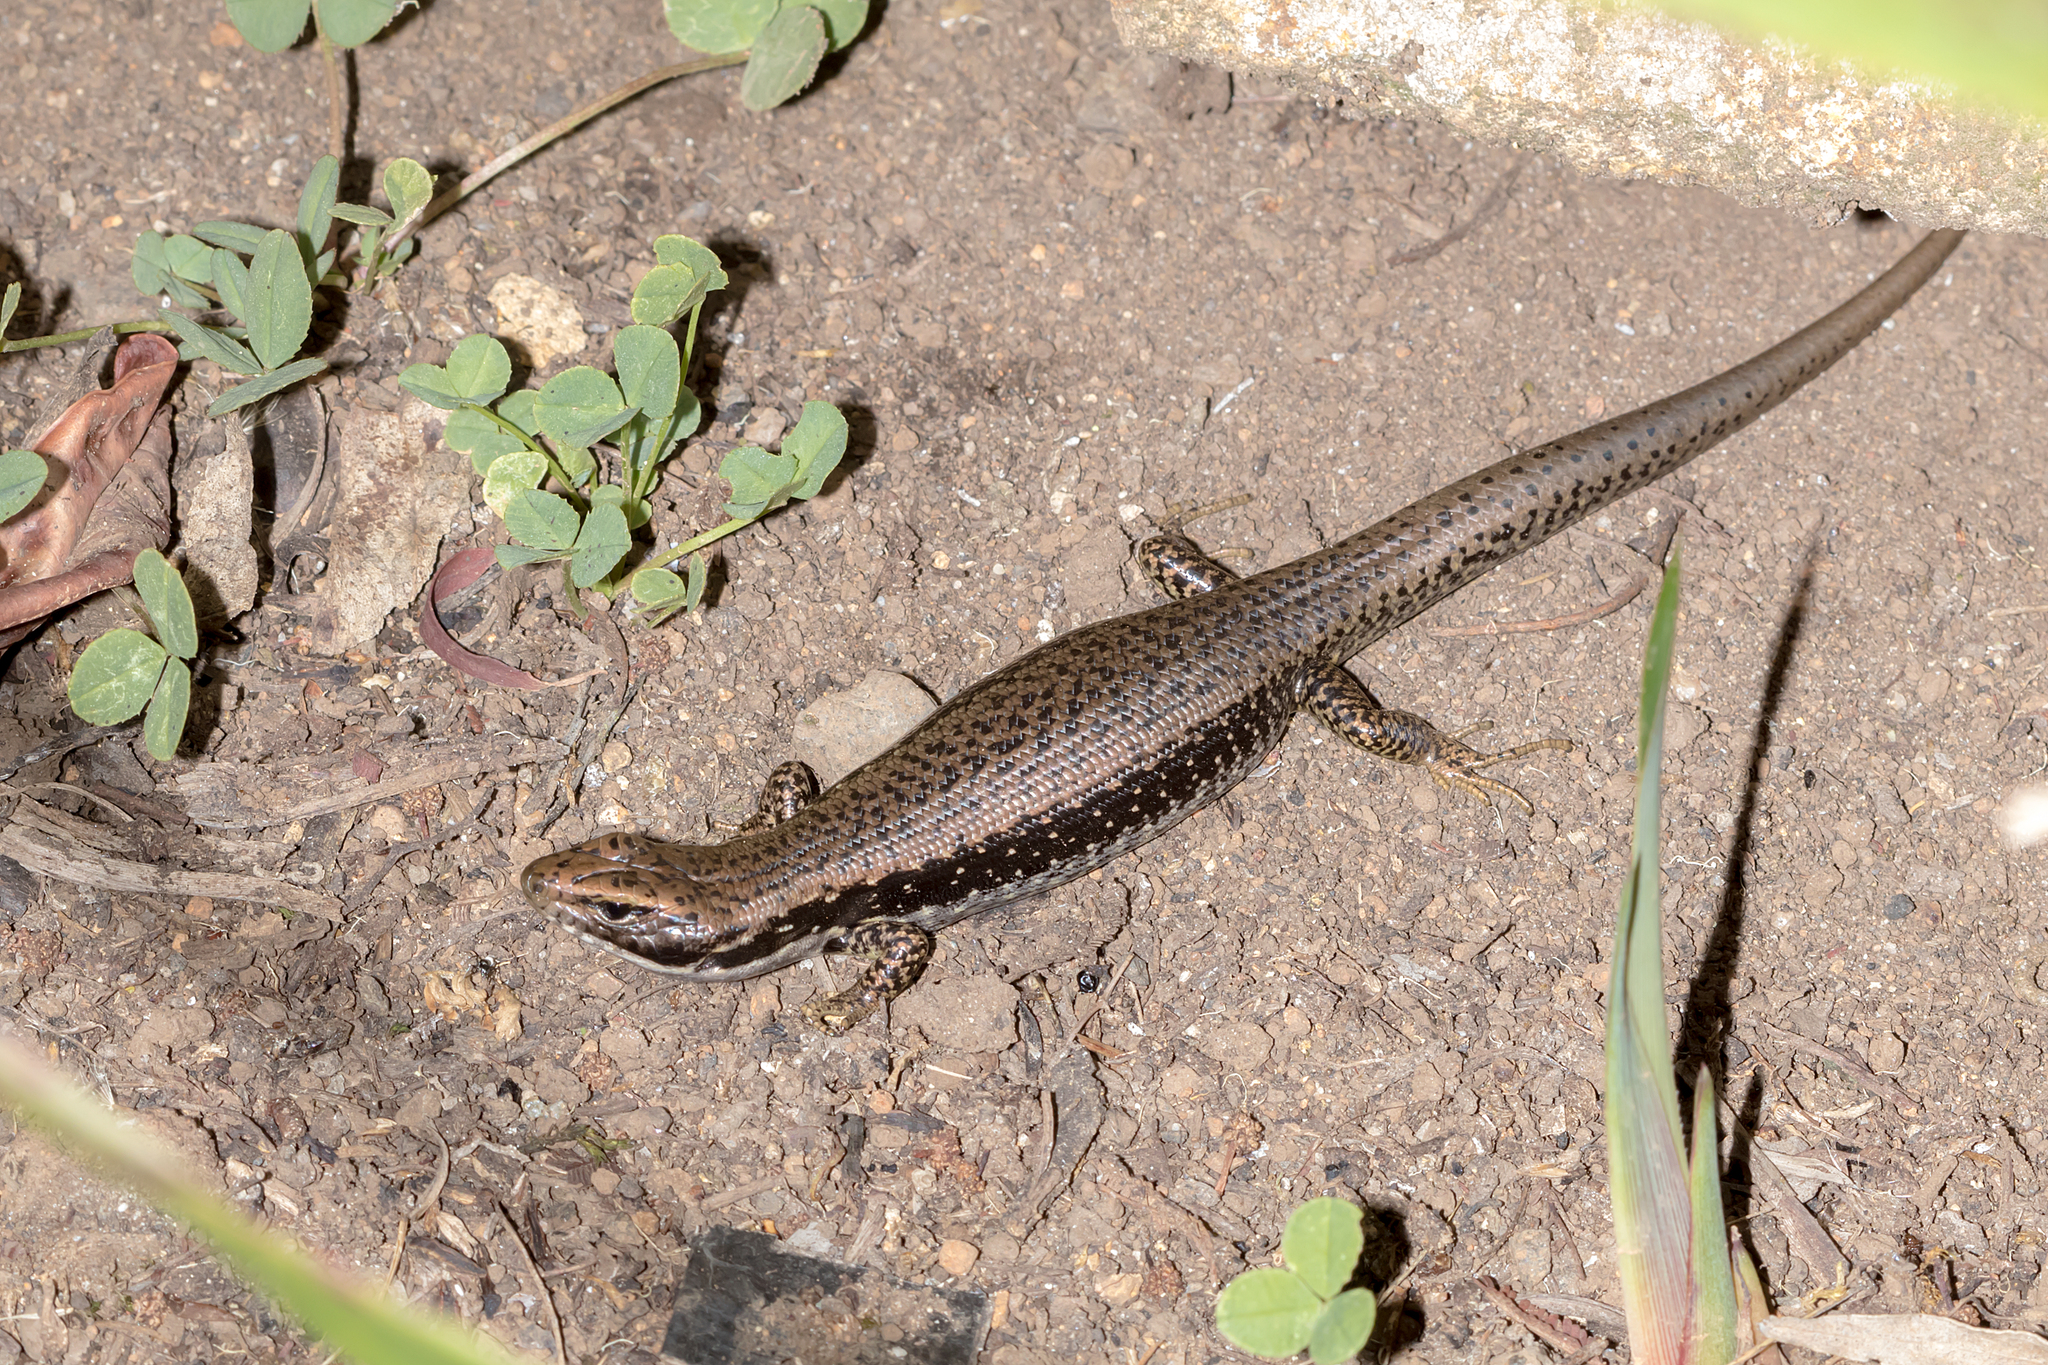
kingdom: Animalia
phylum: Chordata
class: Squamata
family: Scincidae
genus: Eulamprus
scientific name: Eulamprus tympanum
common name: Cool-temperate water-skink
